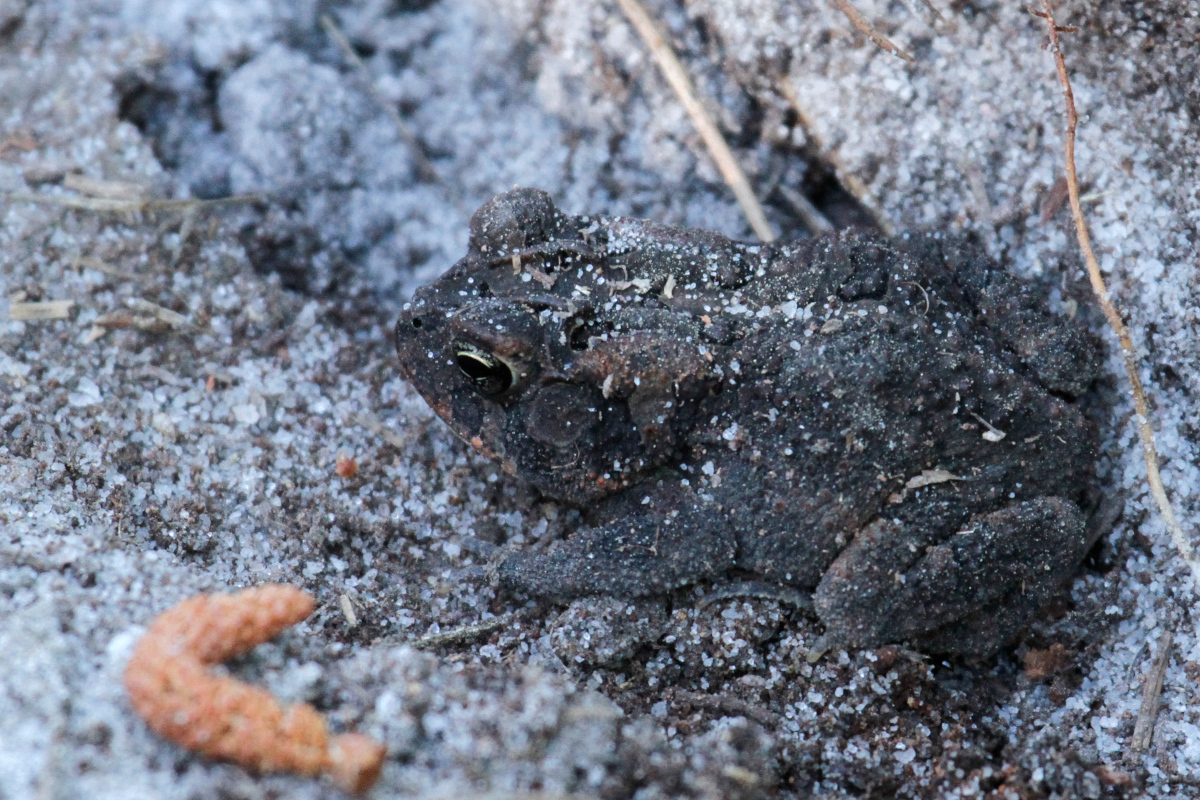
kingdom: Animalia
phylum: Chordata
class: Amphibia
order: Anura
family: Bufonidae
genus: Anaxyrus
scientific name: Anaxyrus terrestris
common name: Southern toad
